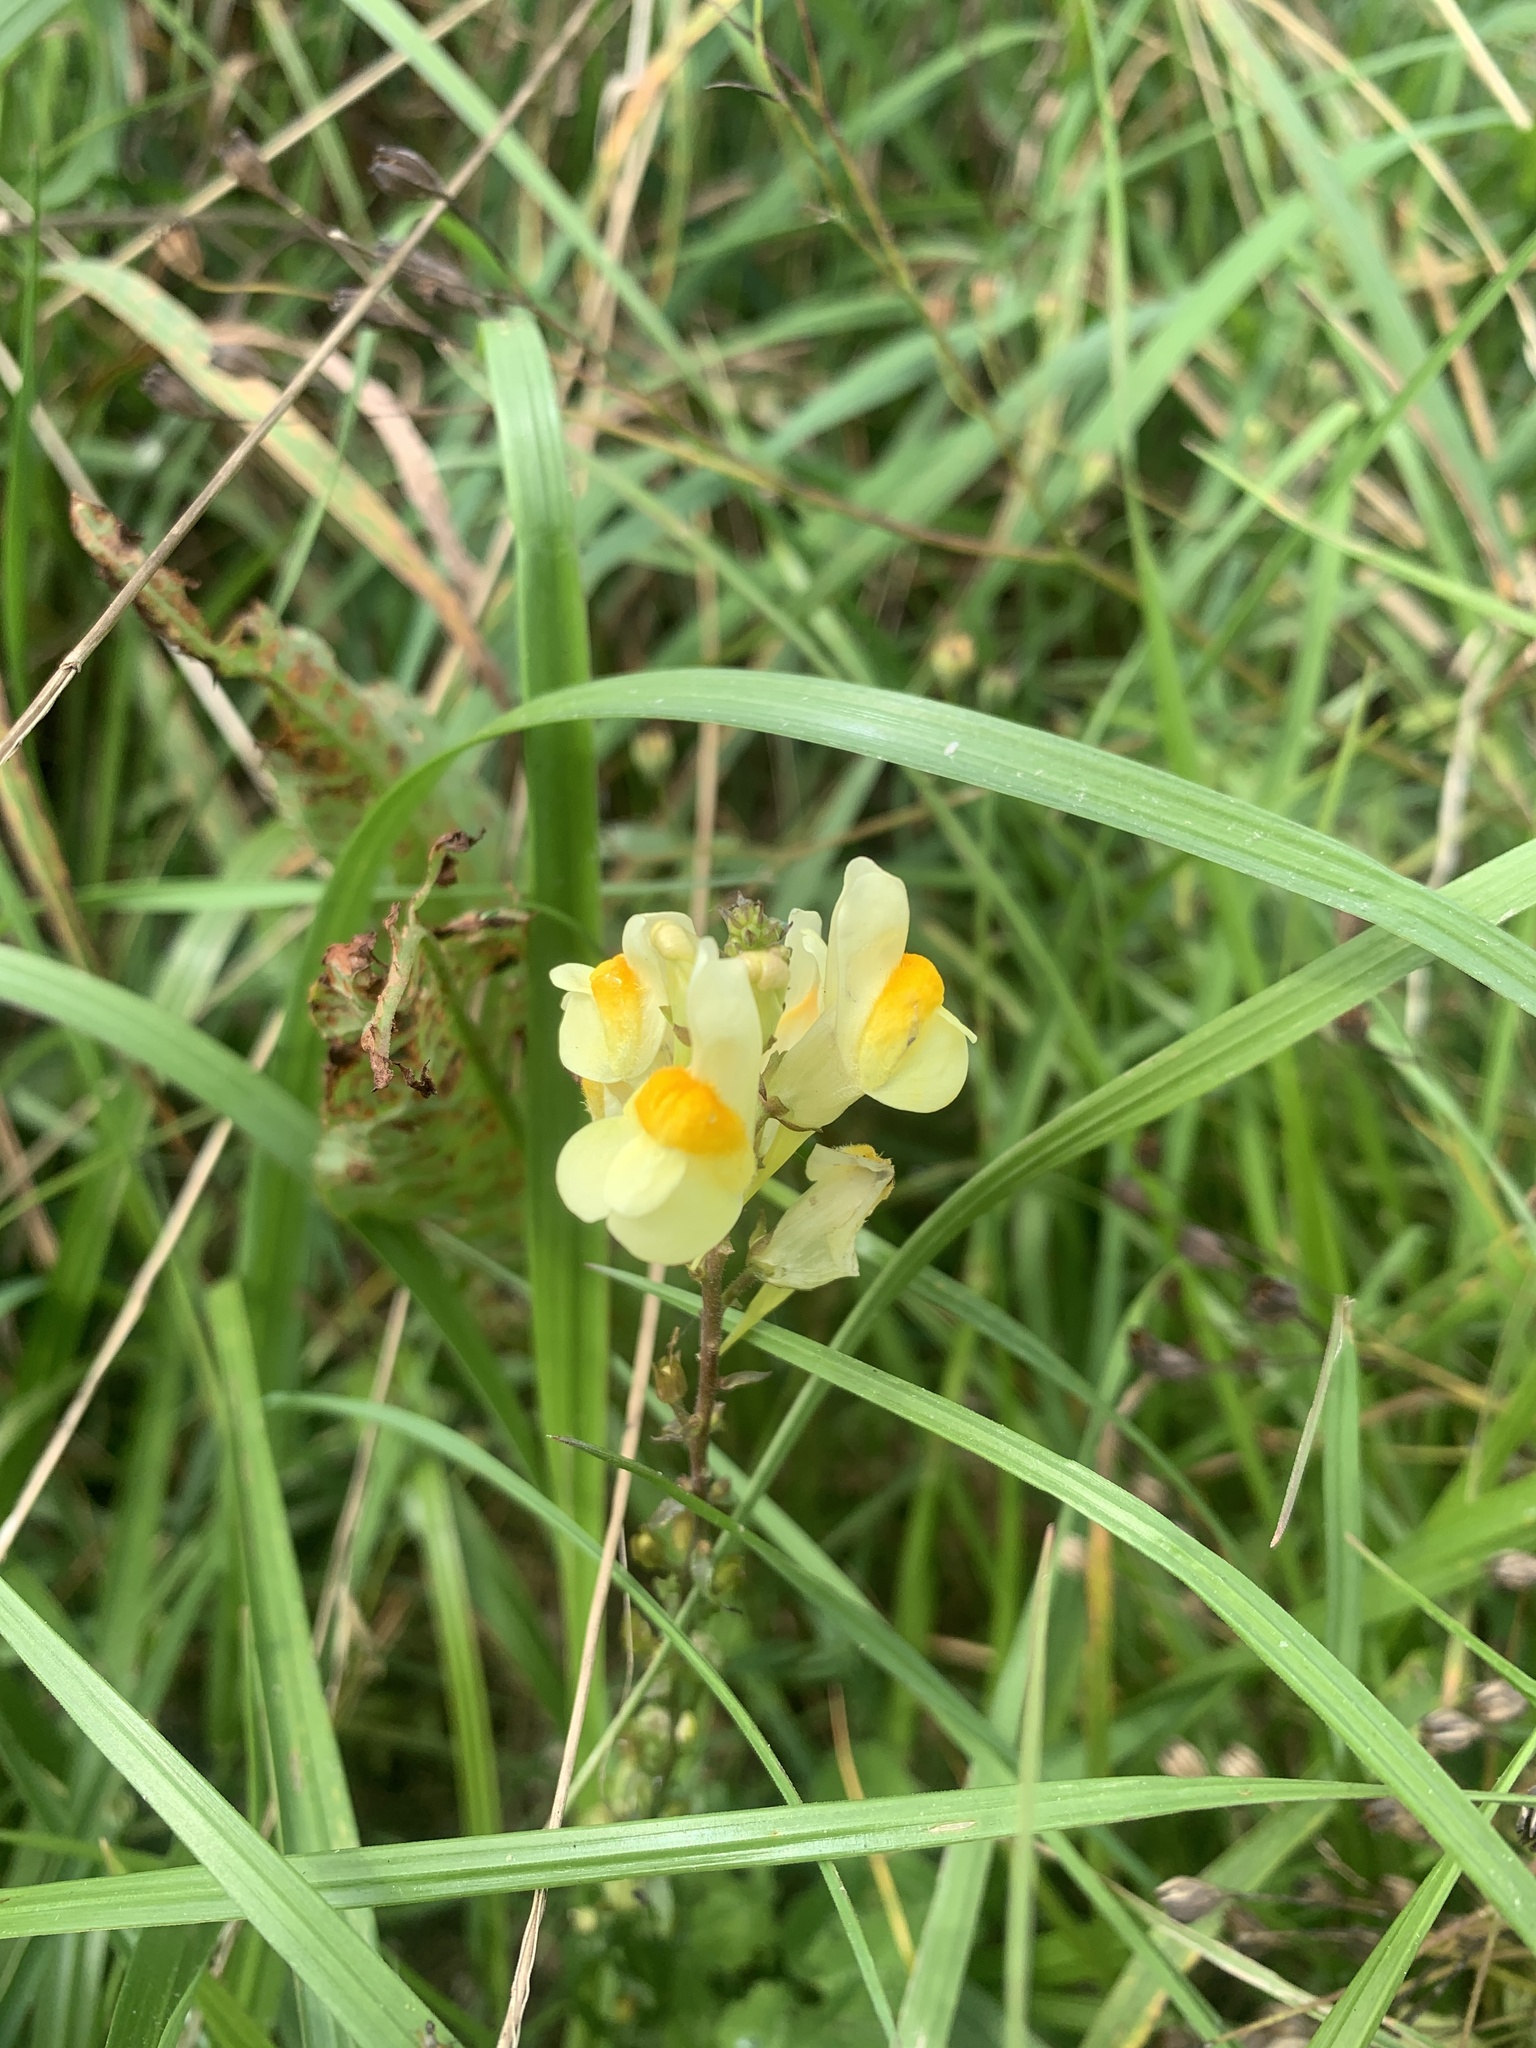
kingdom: Plantae
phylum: Tracheophyta
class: Magnoliopsida
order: Lamiales
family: Plantaginaceae
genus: Linaria
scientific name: Linaria vulgaris
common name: Butter and eggs
